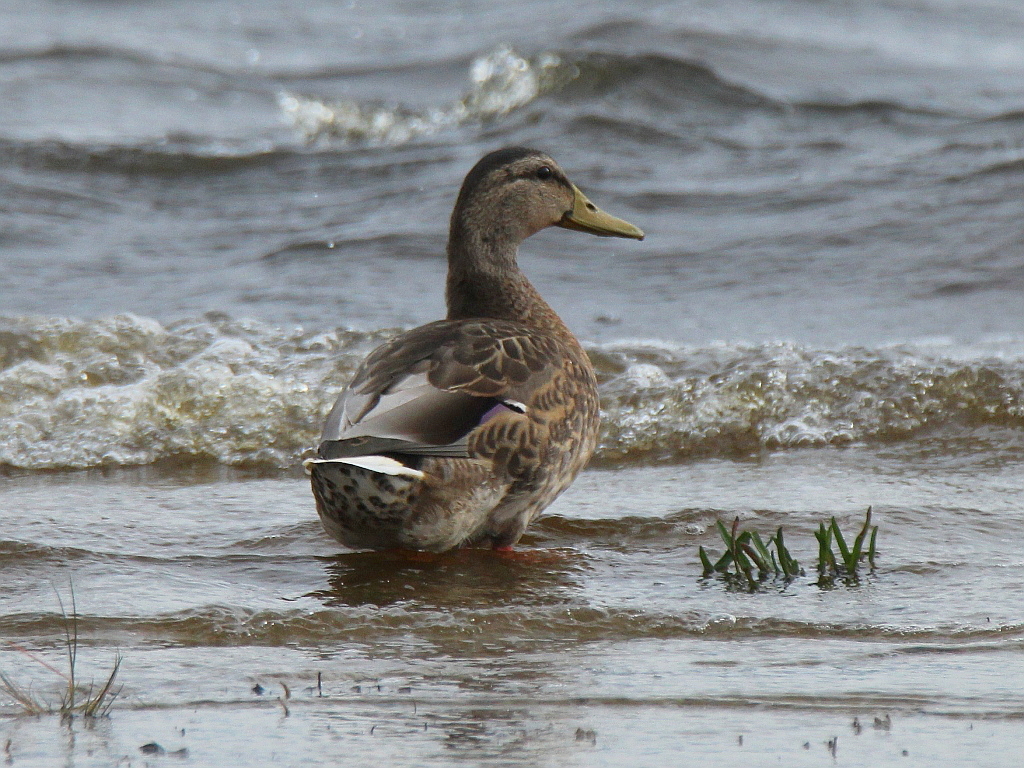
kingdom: Animalia
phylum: Chordata
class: Aves
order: Anseriformes
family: Anatidae
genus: Anas
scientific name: Anas platyrhynchos
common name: Mallard
